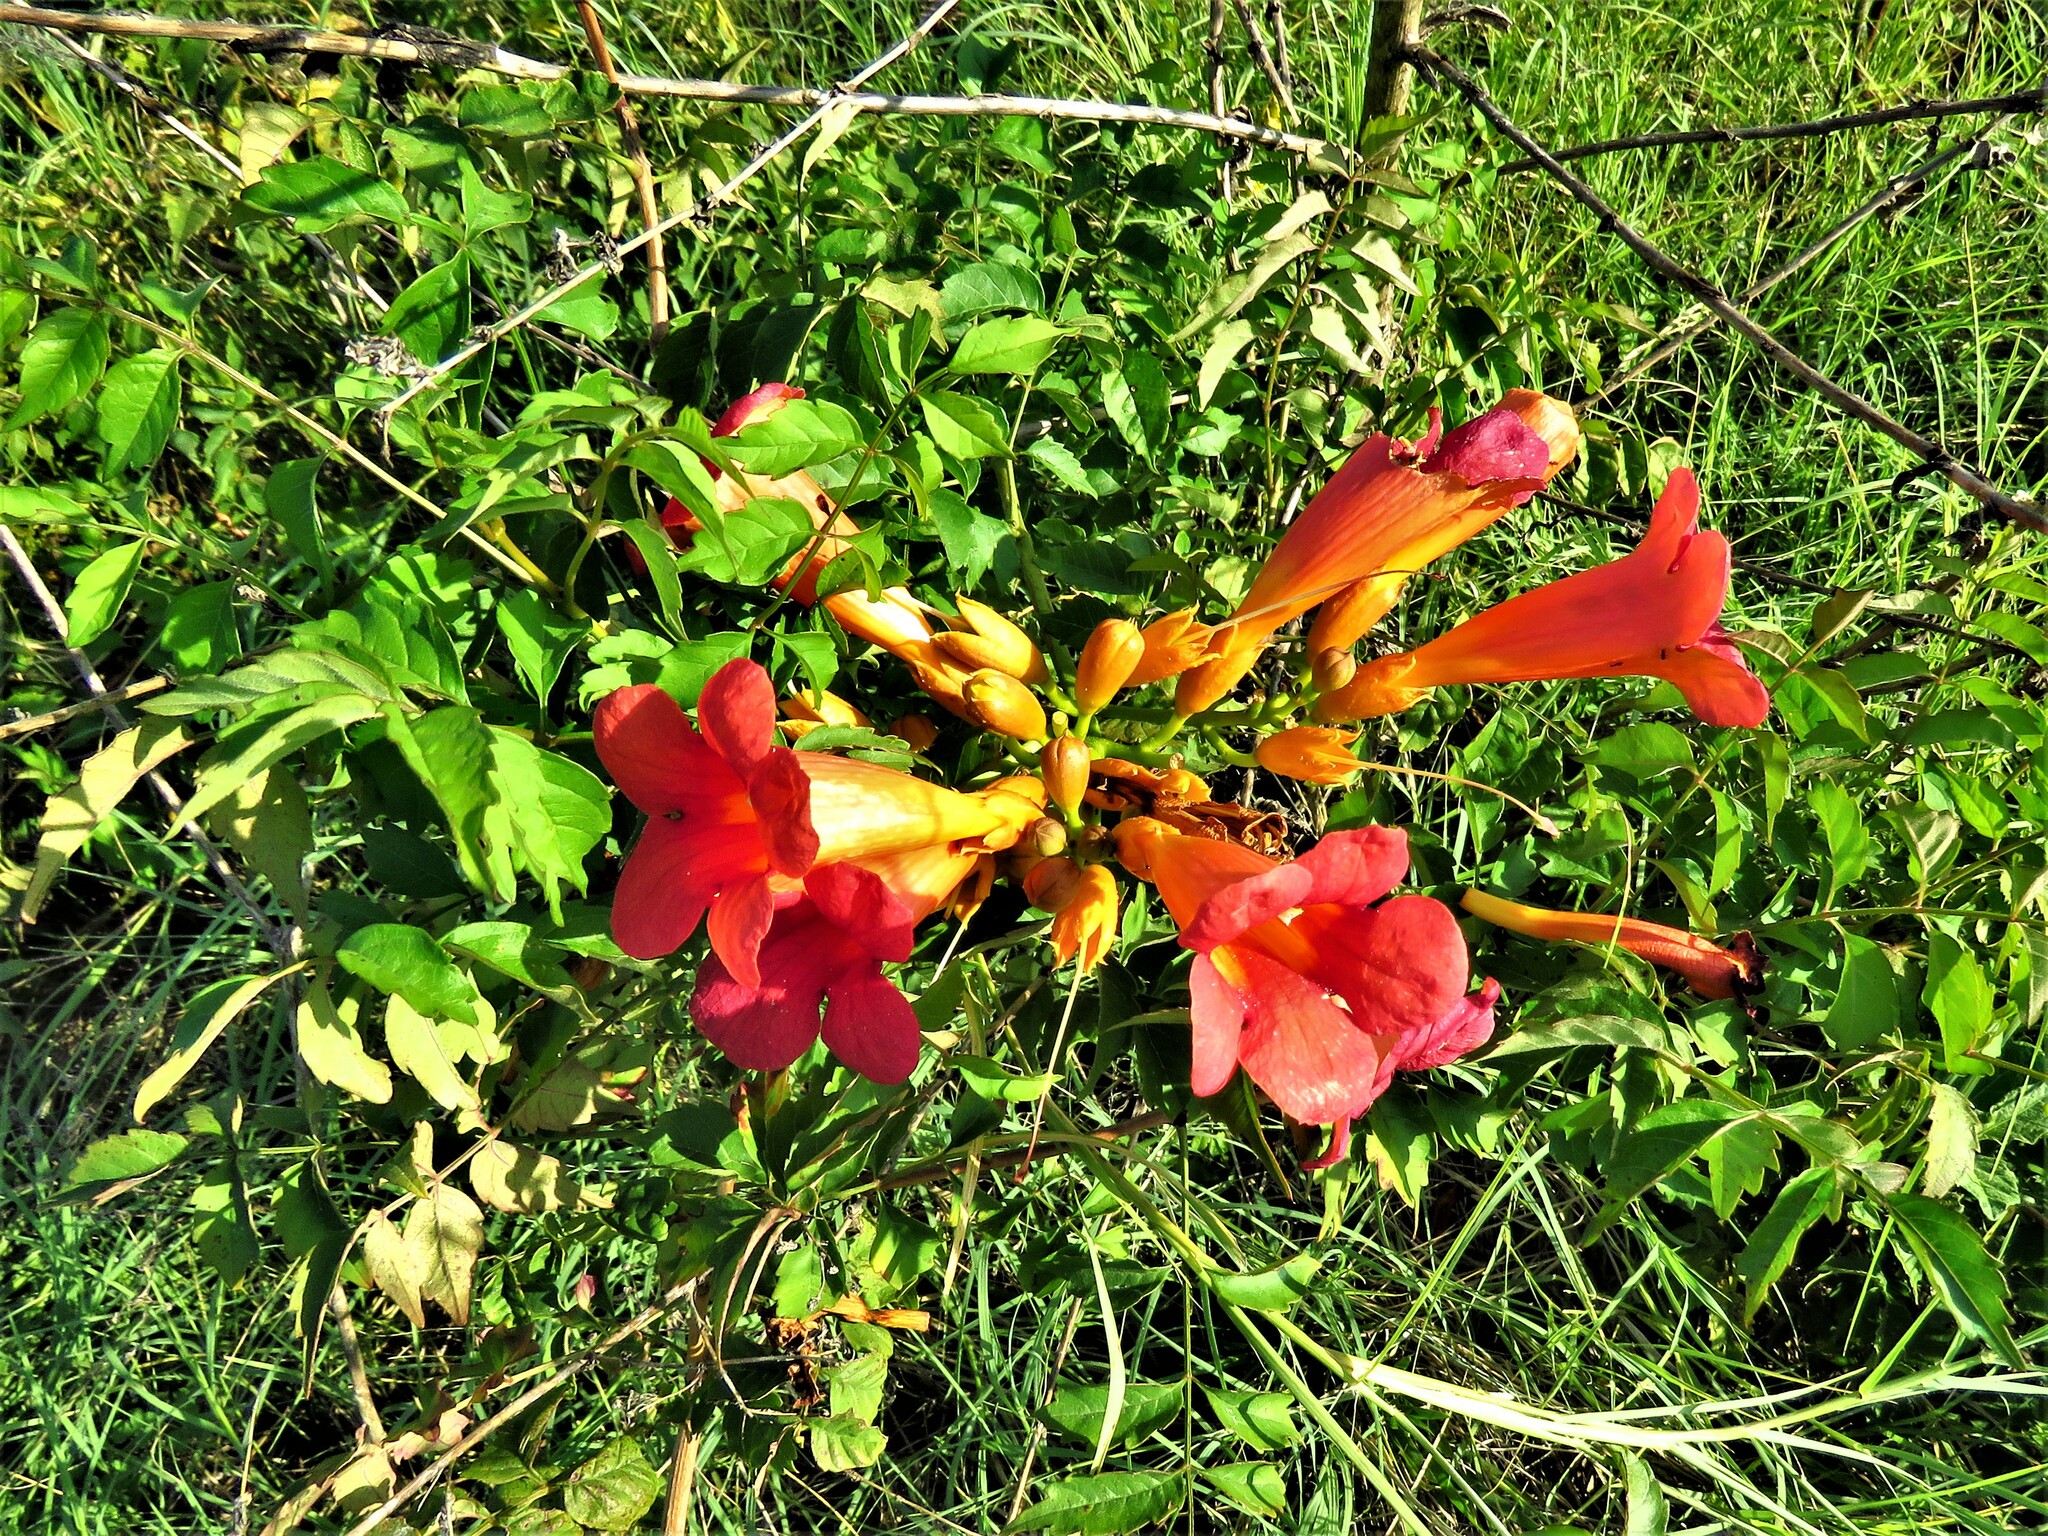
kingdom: Plantae
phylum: Tracheophyta
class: Magnoliopsida
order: Lamiales
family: Bignoniaceae
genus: Campsis
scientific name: Campsis radicans
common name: Trumpet-creeper
